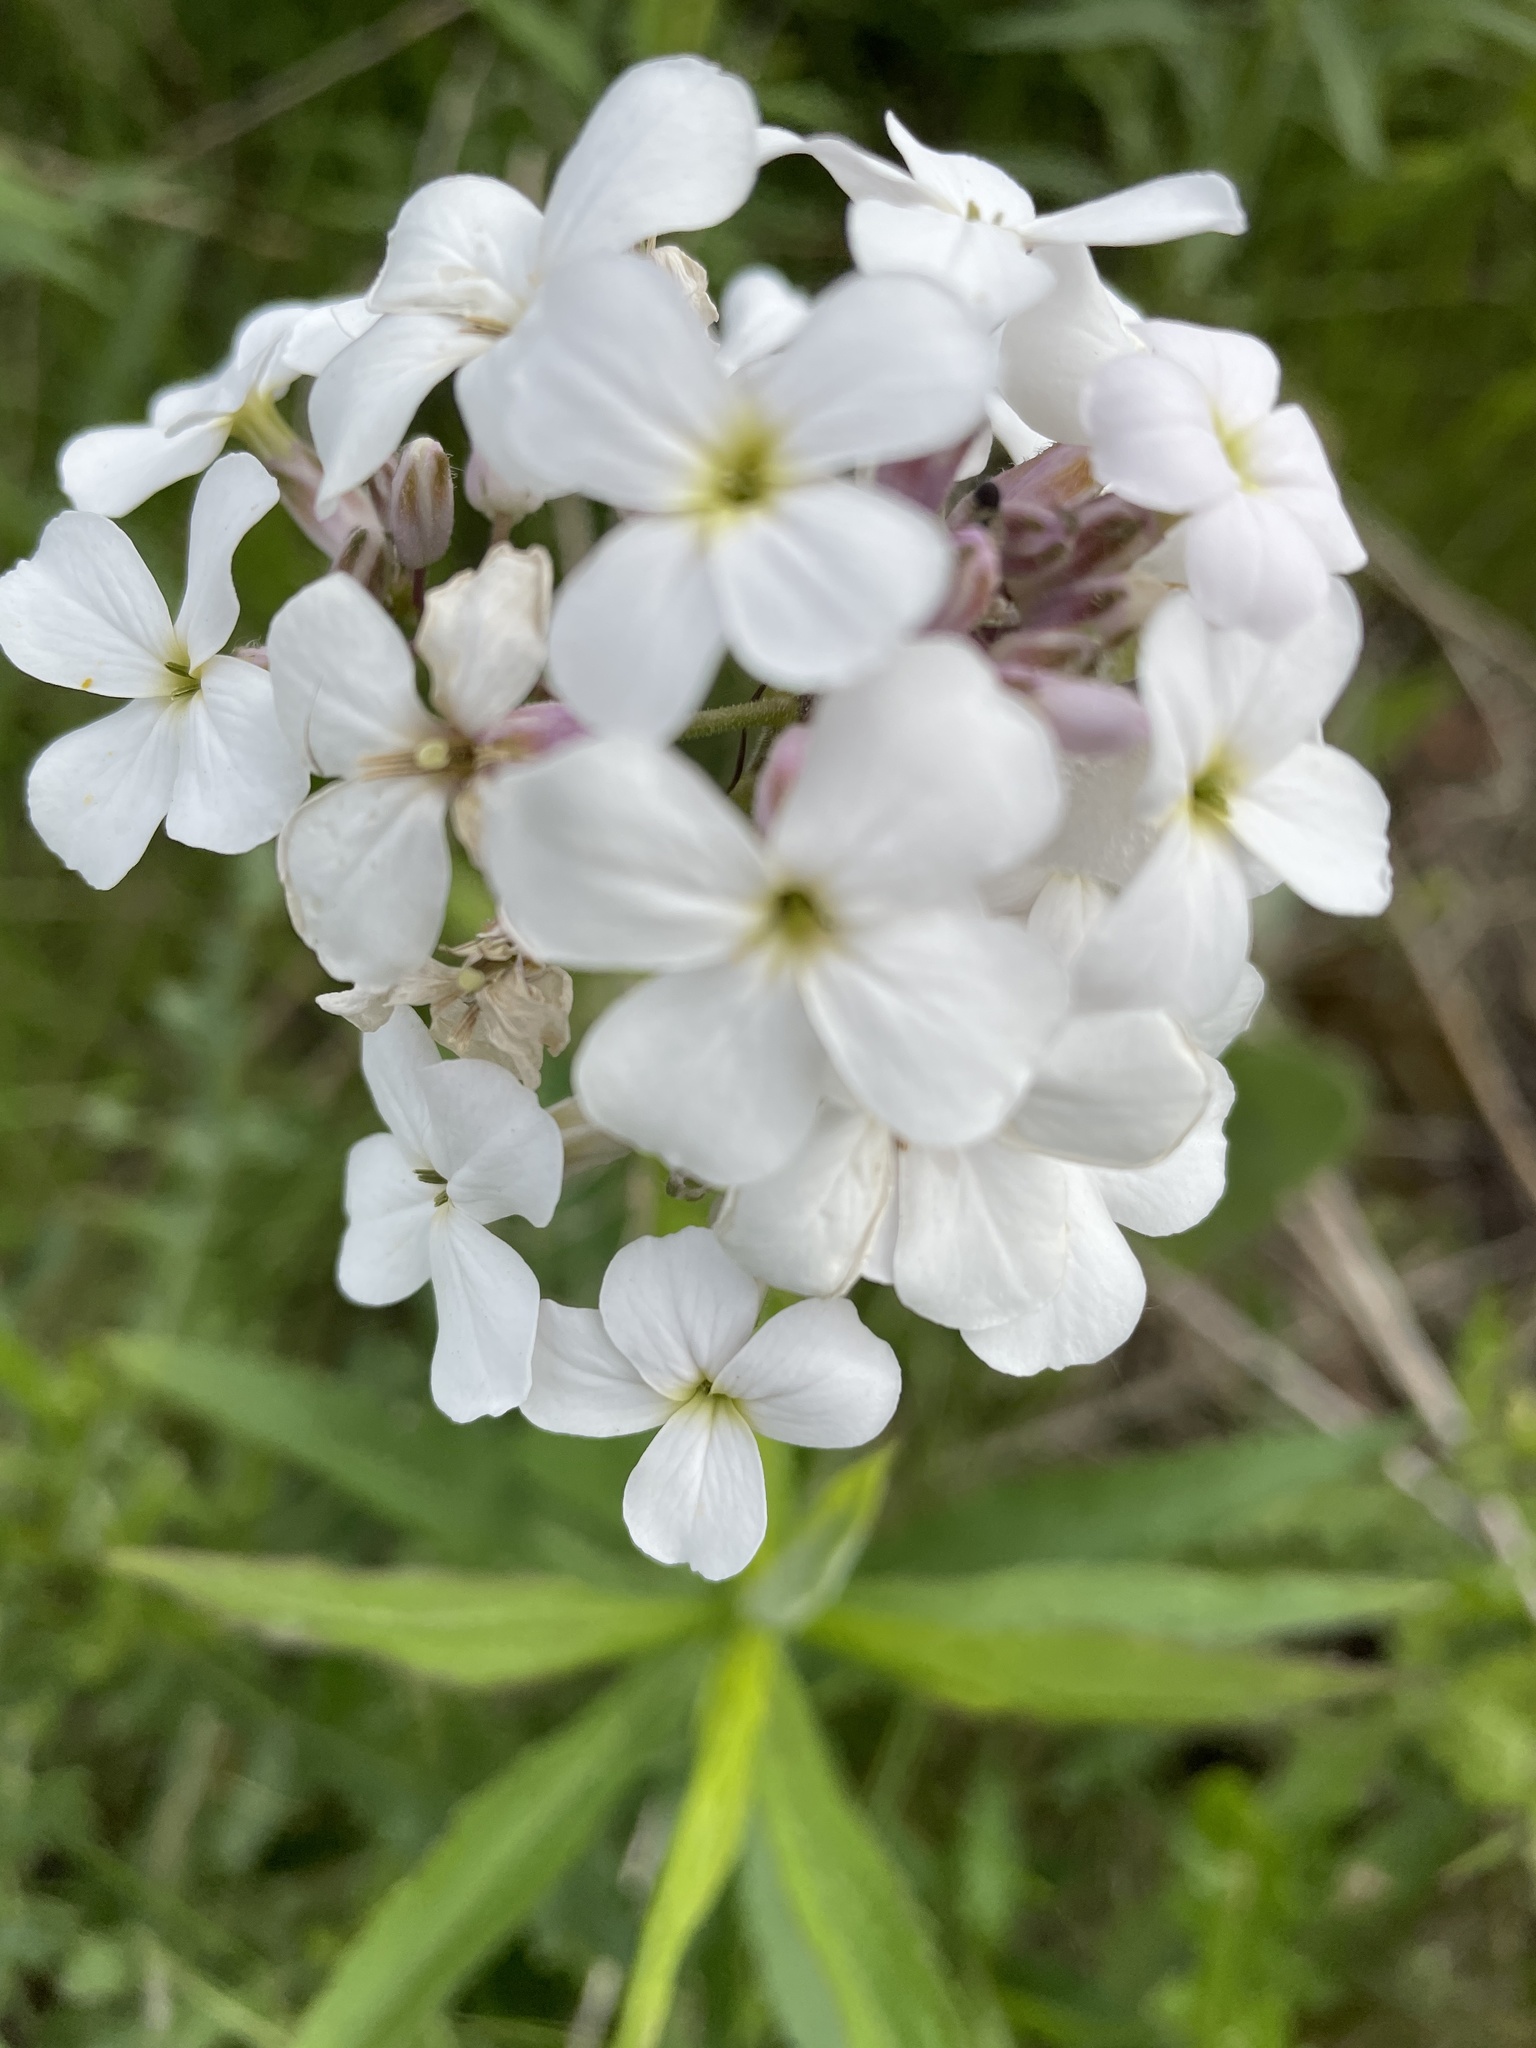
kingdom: Plantae
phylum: Tracheophyta
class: Magnoliopsida
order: Brassicales
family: Brassicaceae
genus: Hesperis
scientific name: Hesperis matronalis
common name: Dame's-violet
